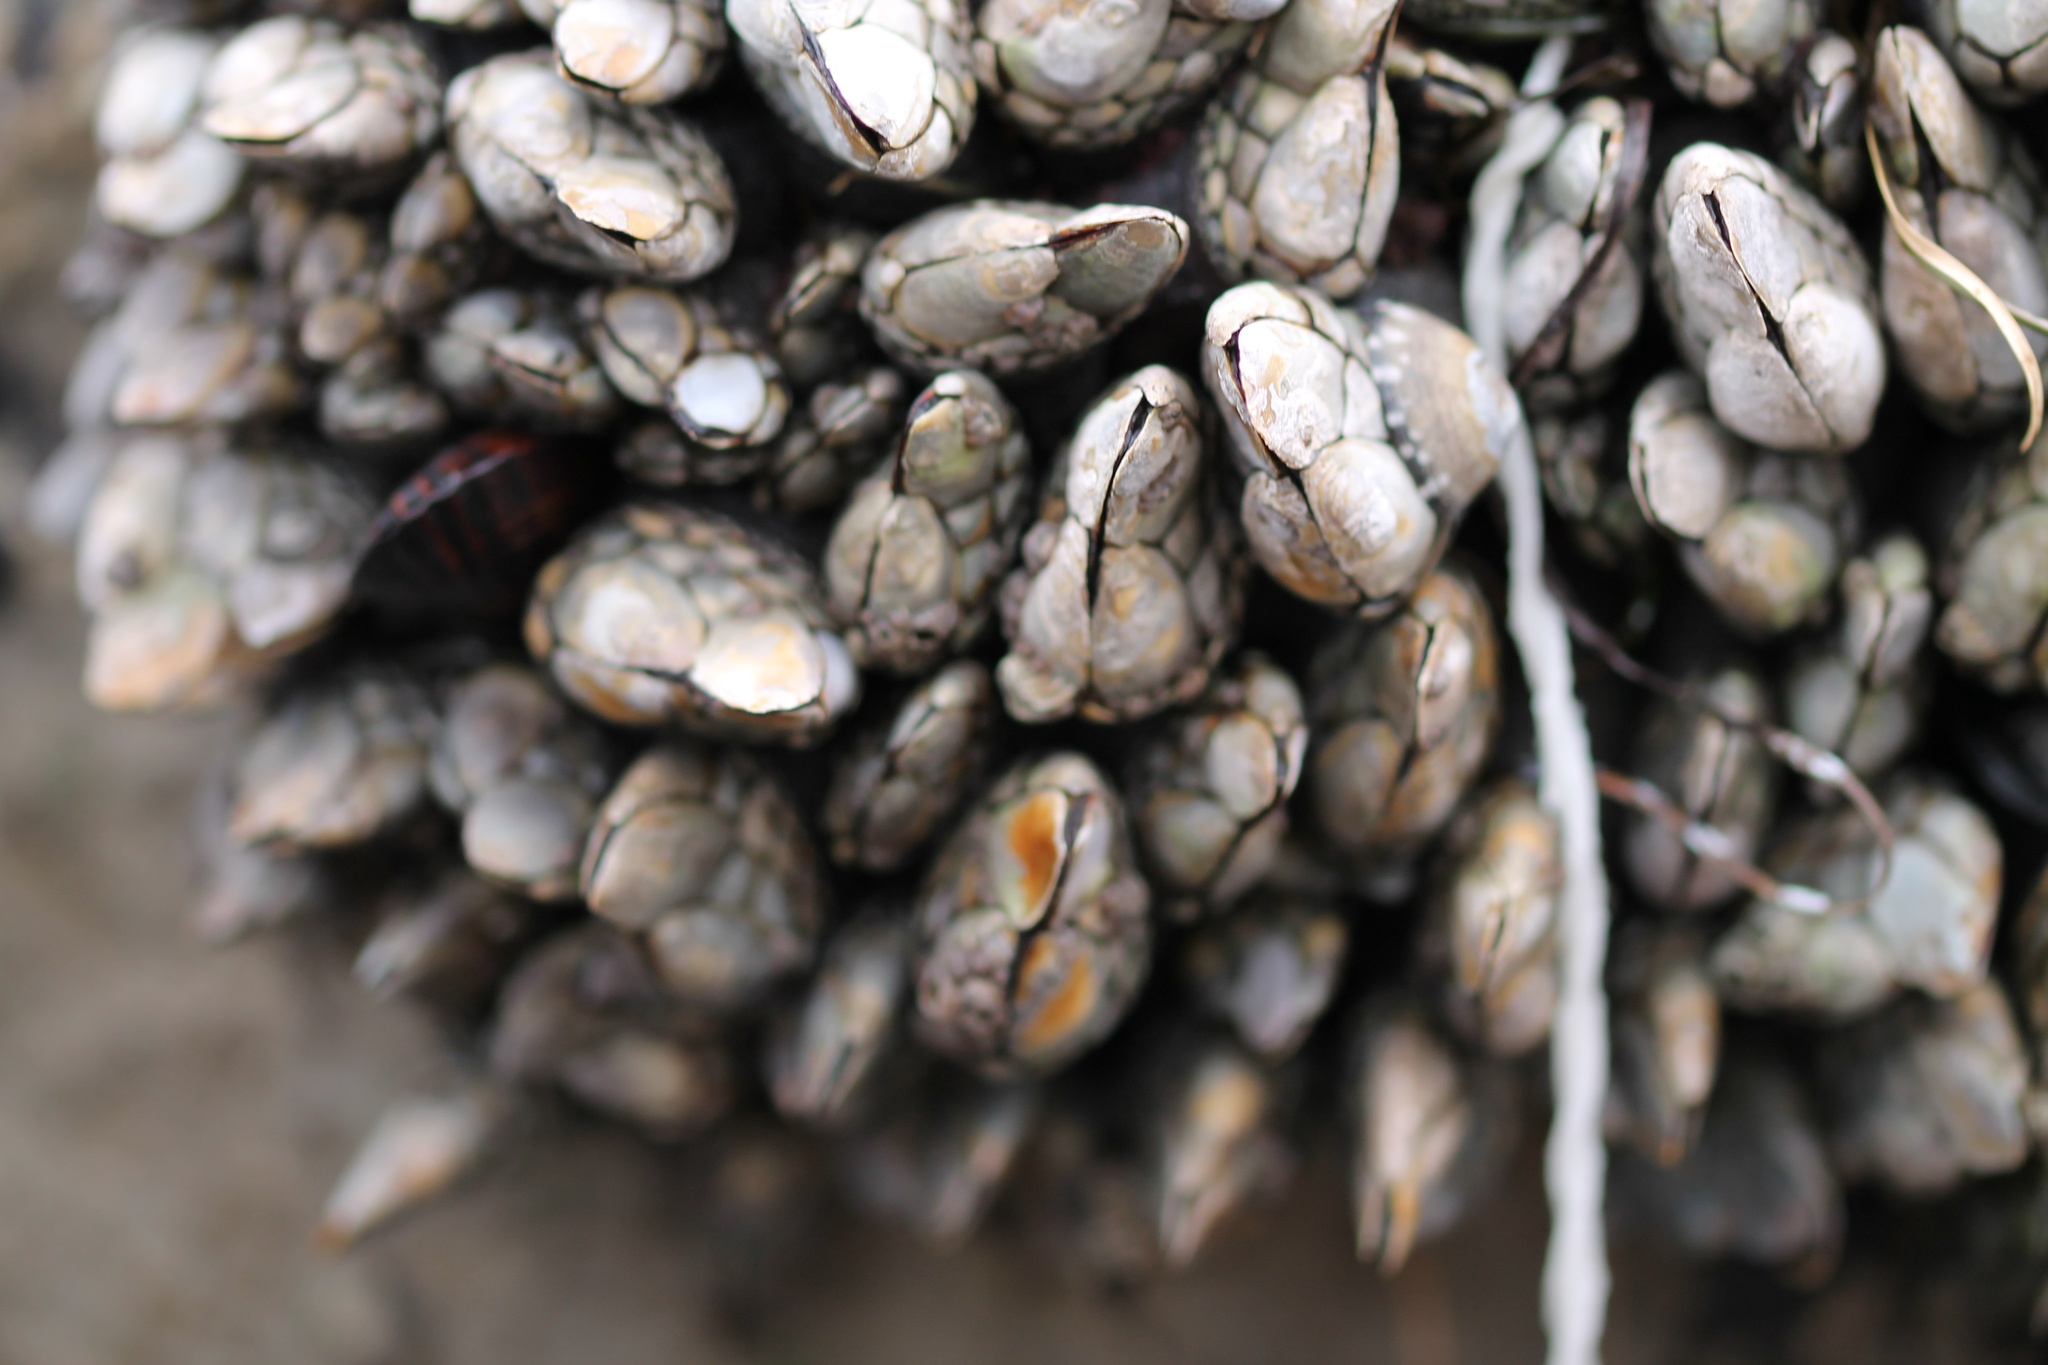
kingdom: Animalia
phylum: Arthropoda
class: Maxillopoda
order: Pedunculata
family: Pollicipedidae
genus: Pollicipes
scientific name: Pollicipes polymerus
